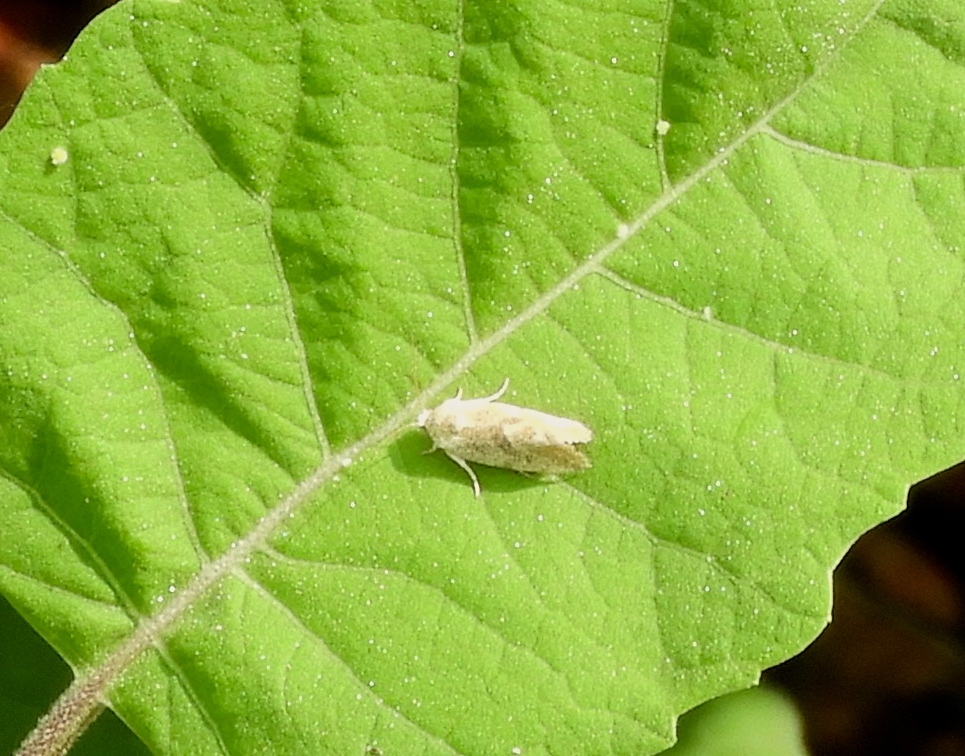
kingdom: Animalia
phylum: Arthropoda
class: Insecta
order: Lepidoptera
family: Noctuidae
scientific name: Noctuidae
